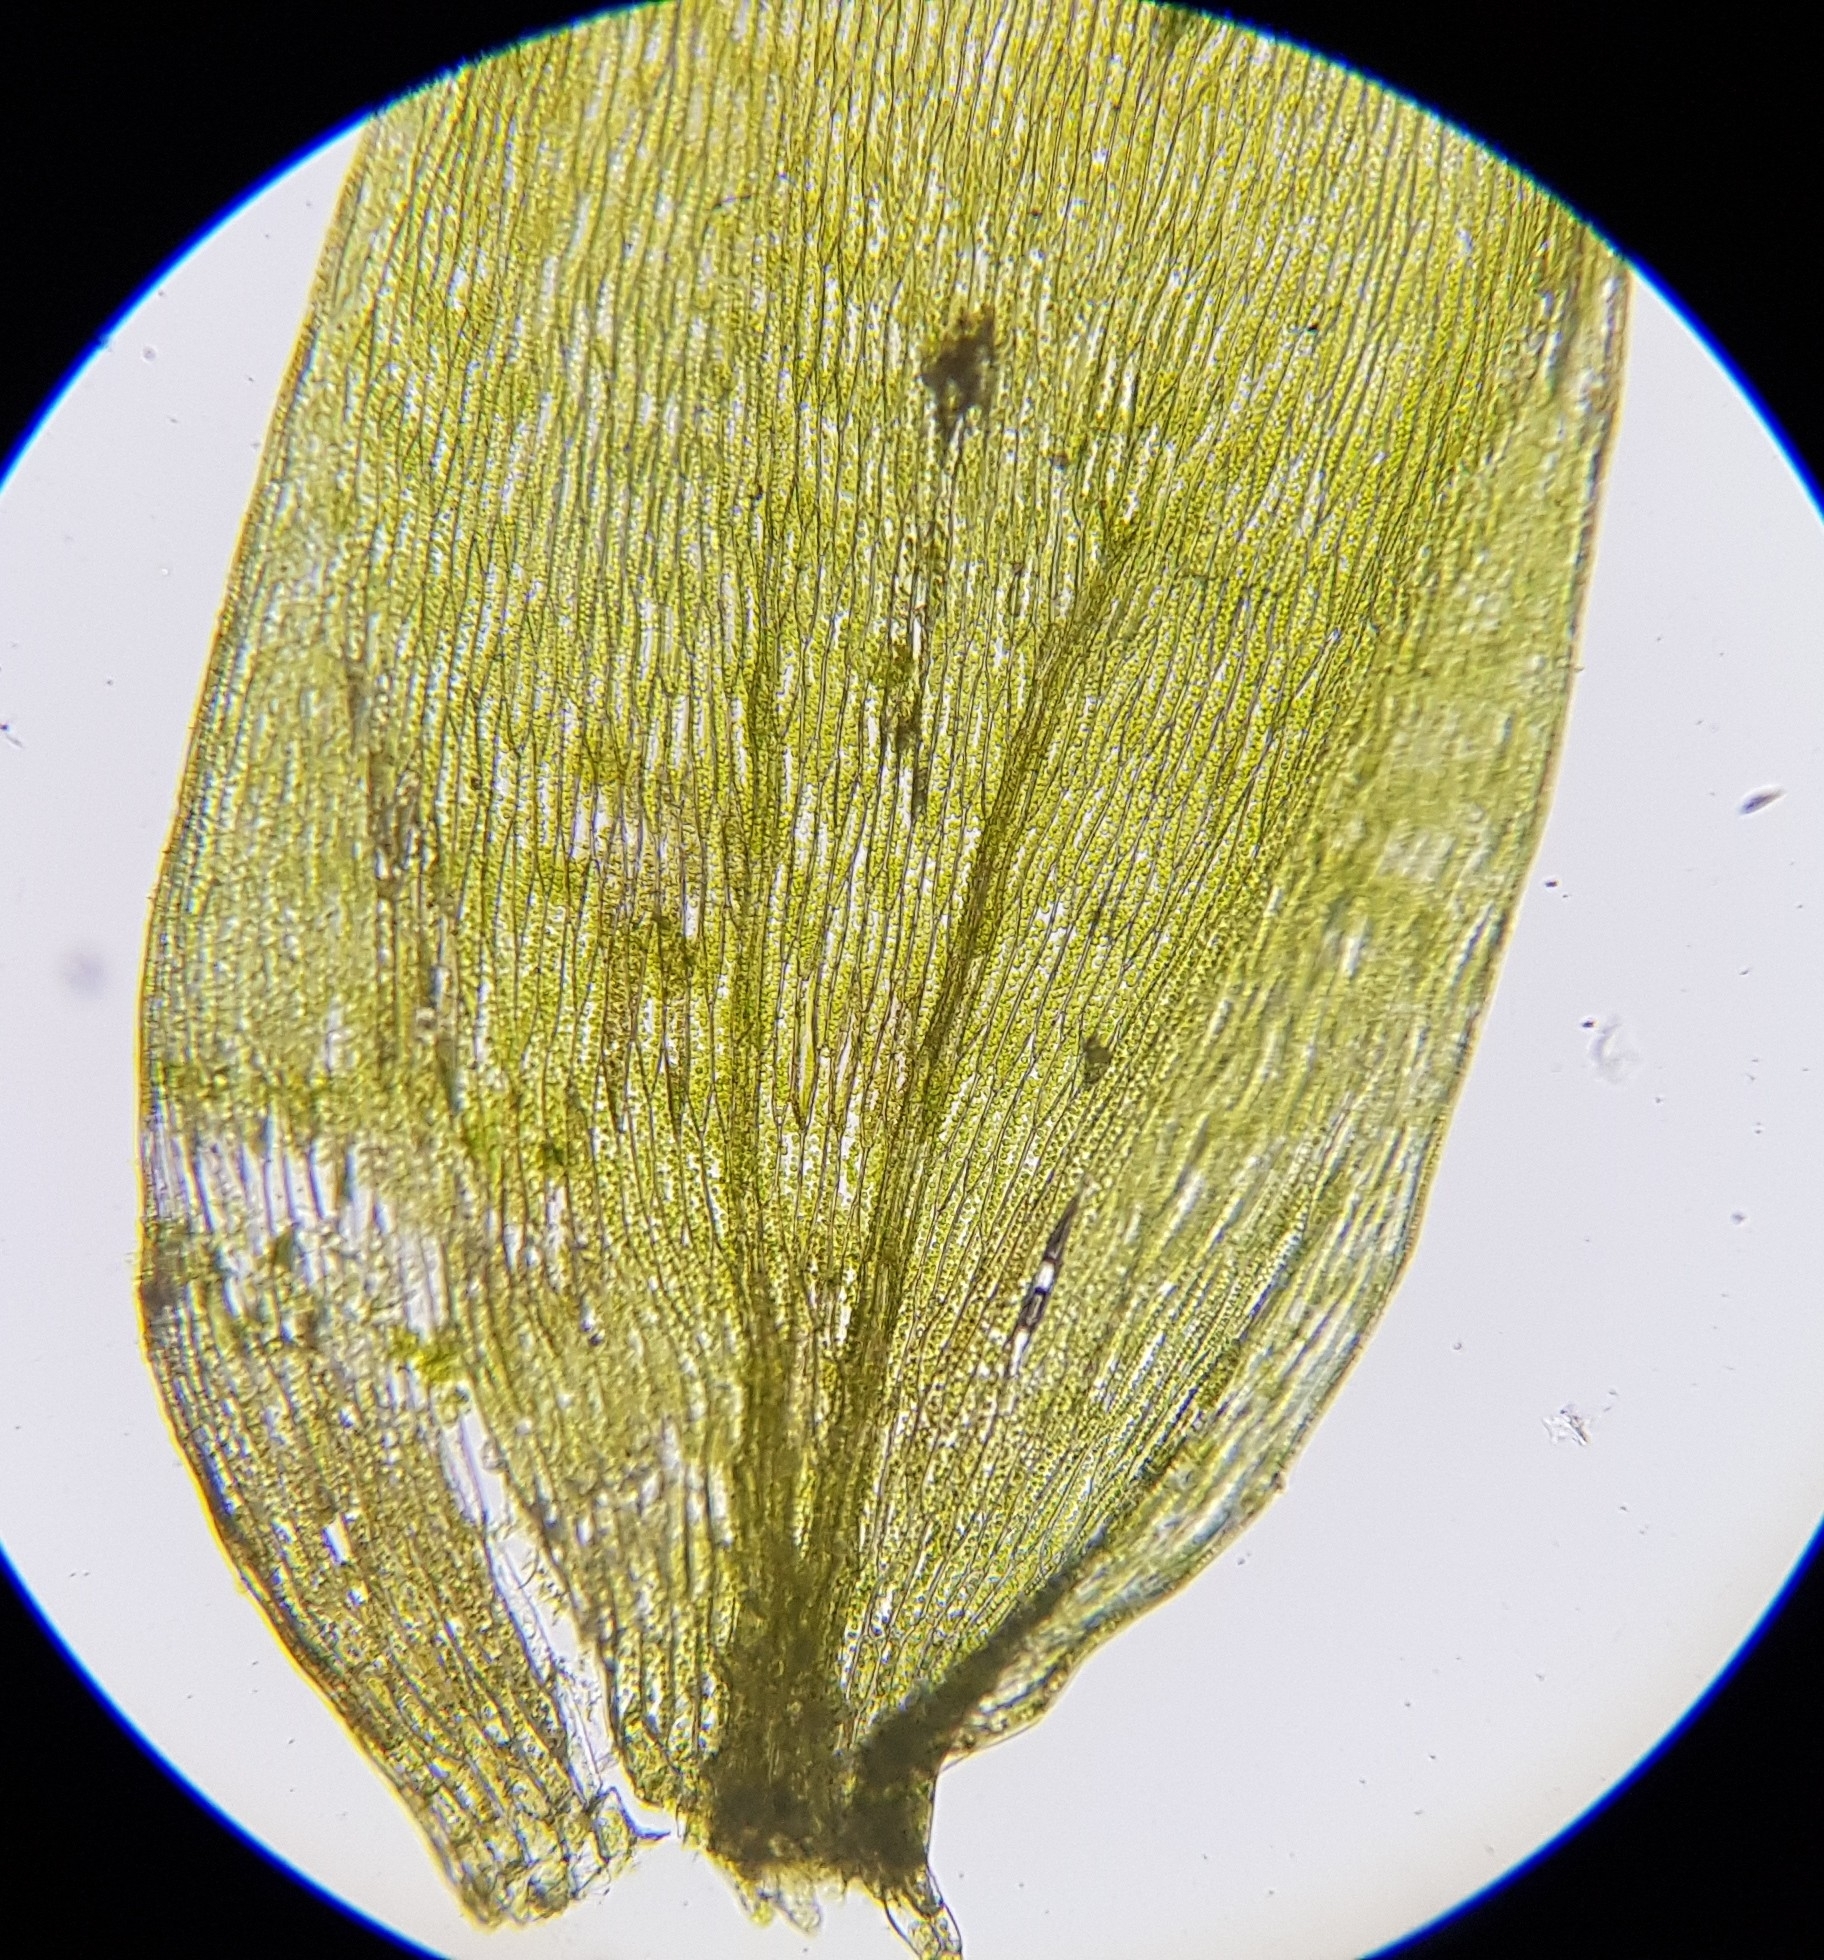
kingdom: Plantae
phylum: Bryophyta
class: Bryopsida
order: Hypnales
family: Plagiotheciaceae
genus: Plagiothecium
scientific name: Plagiothecium nemorale
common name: Woodsy silk-moss
